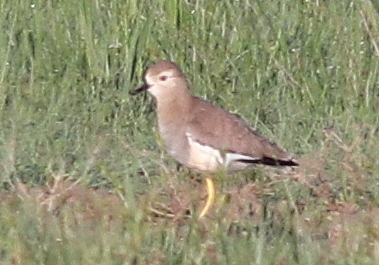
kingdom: Animalia
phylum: Chordata
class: Aves
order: Charadriiformes
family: Charadriidae
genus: Vanellus
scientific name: Vanellus leucurus
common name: White-tailed lapwing
